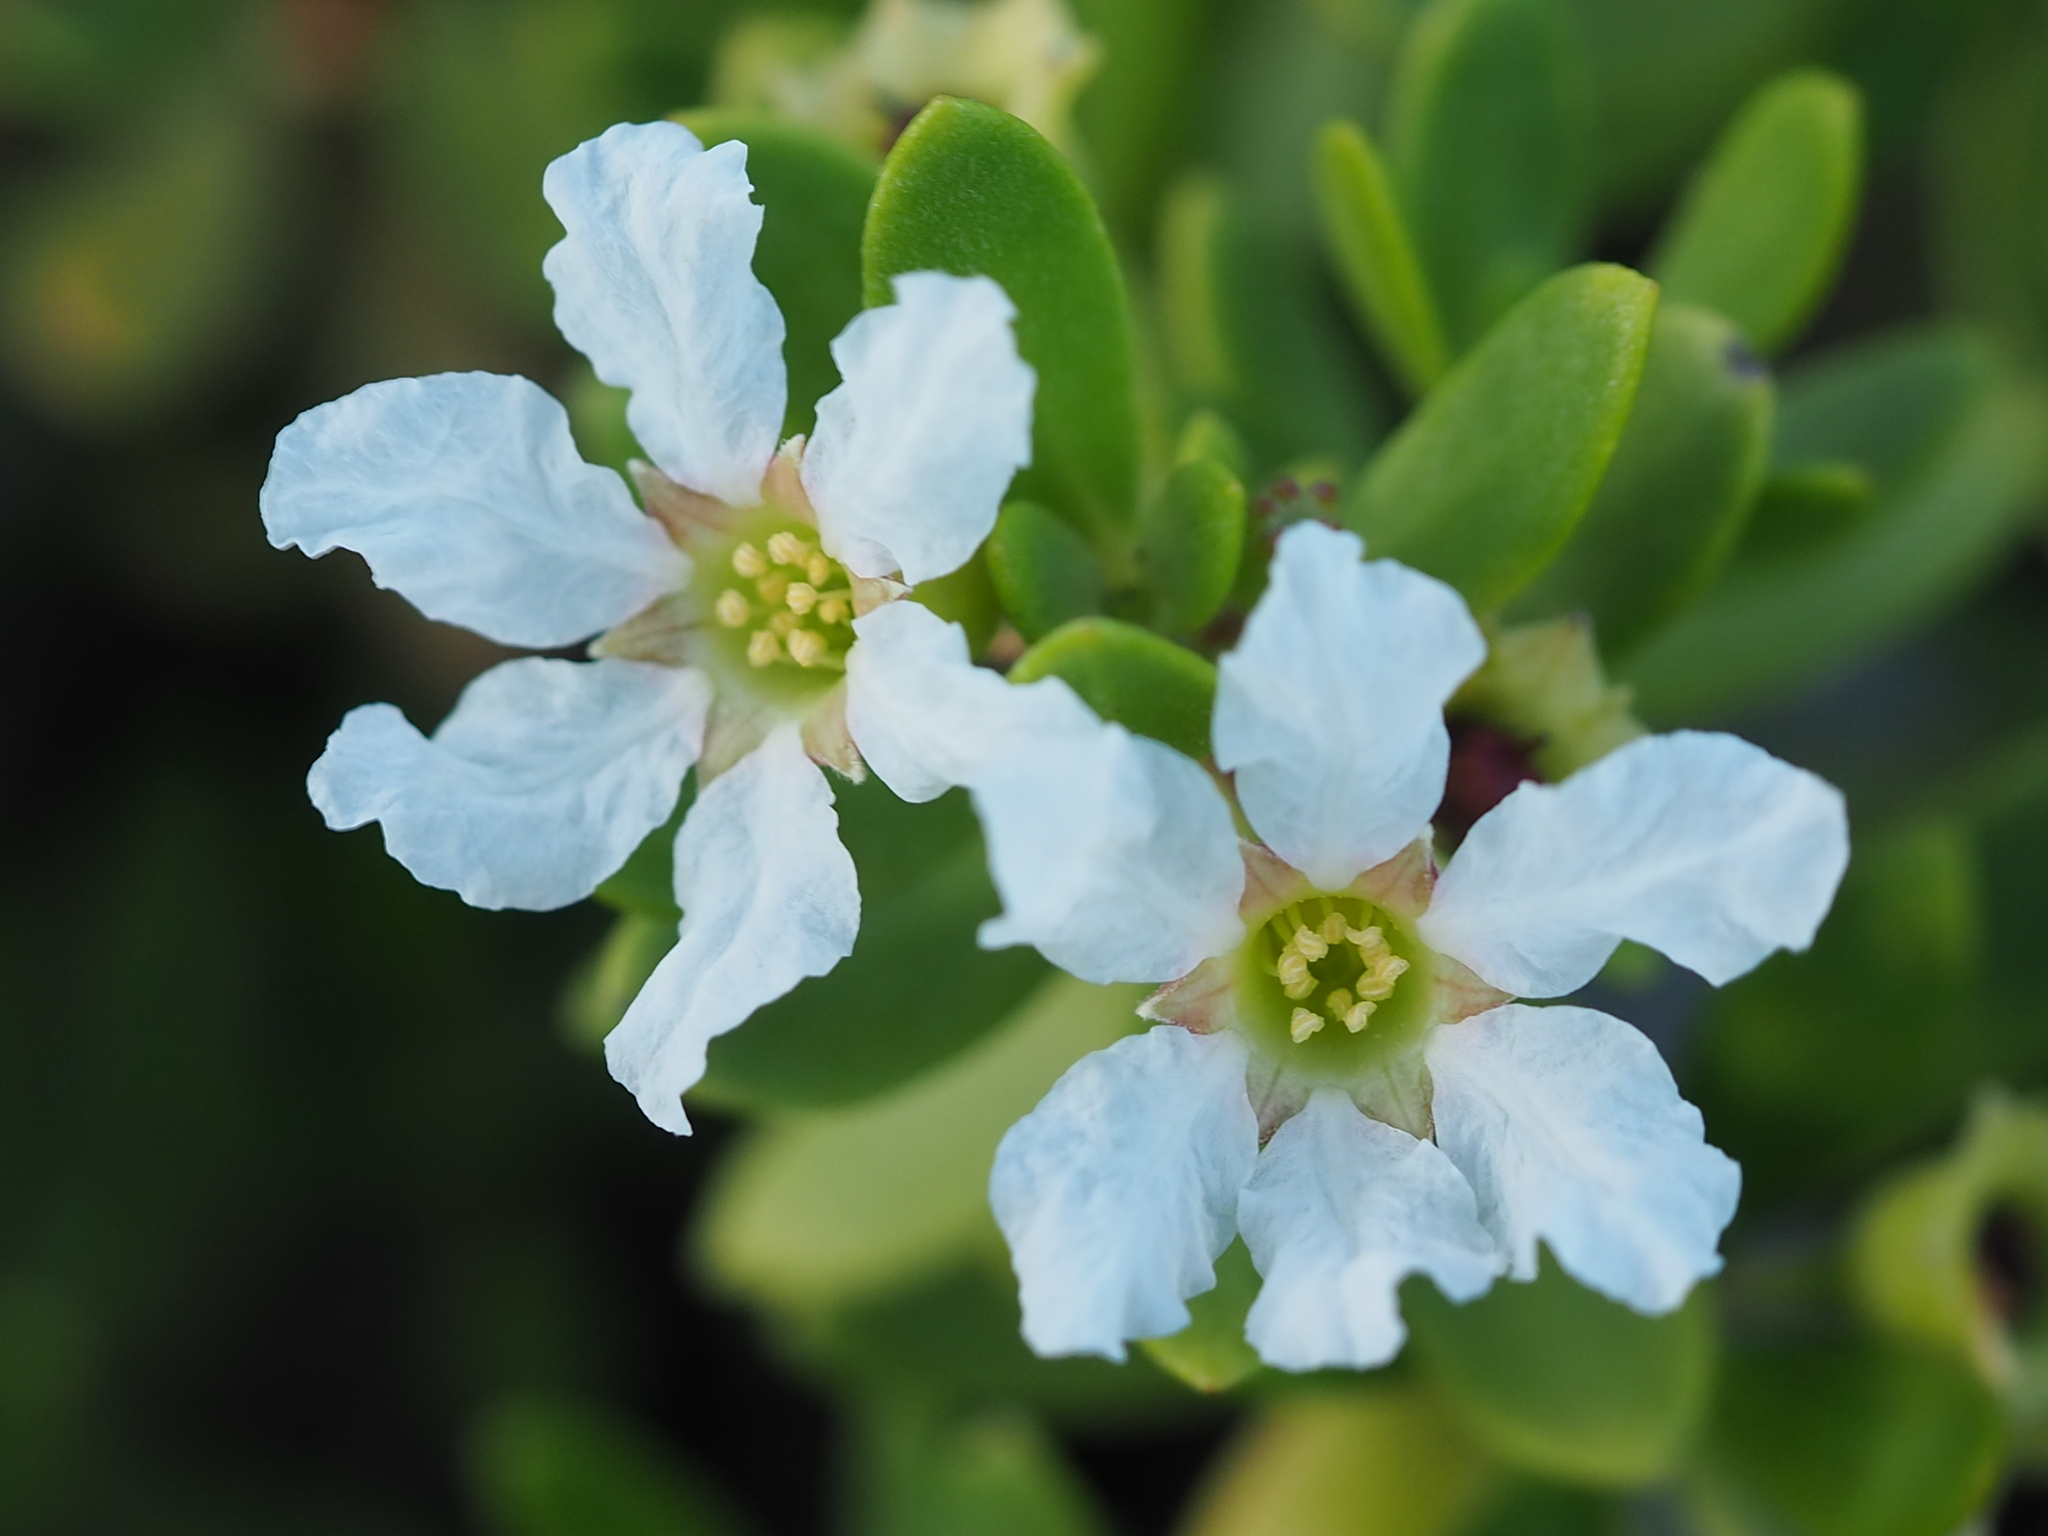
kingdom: Plantae
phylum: Tracheophyta
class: Magnoliopsida
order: Myrtales
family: Lythraceae
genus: Pemphis
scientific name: Pemphis acidula
